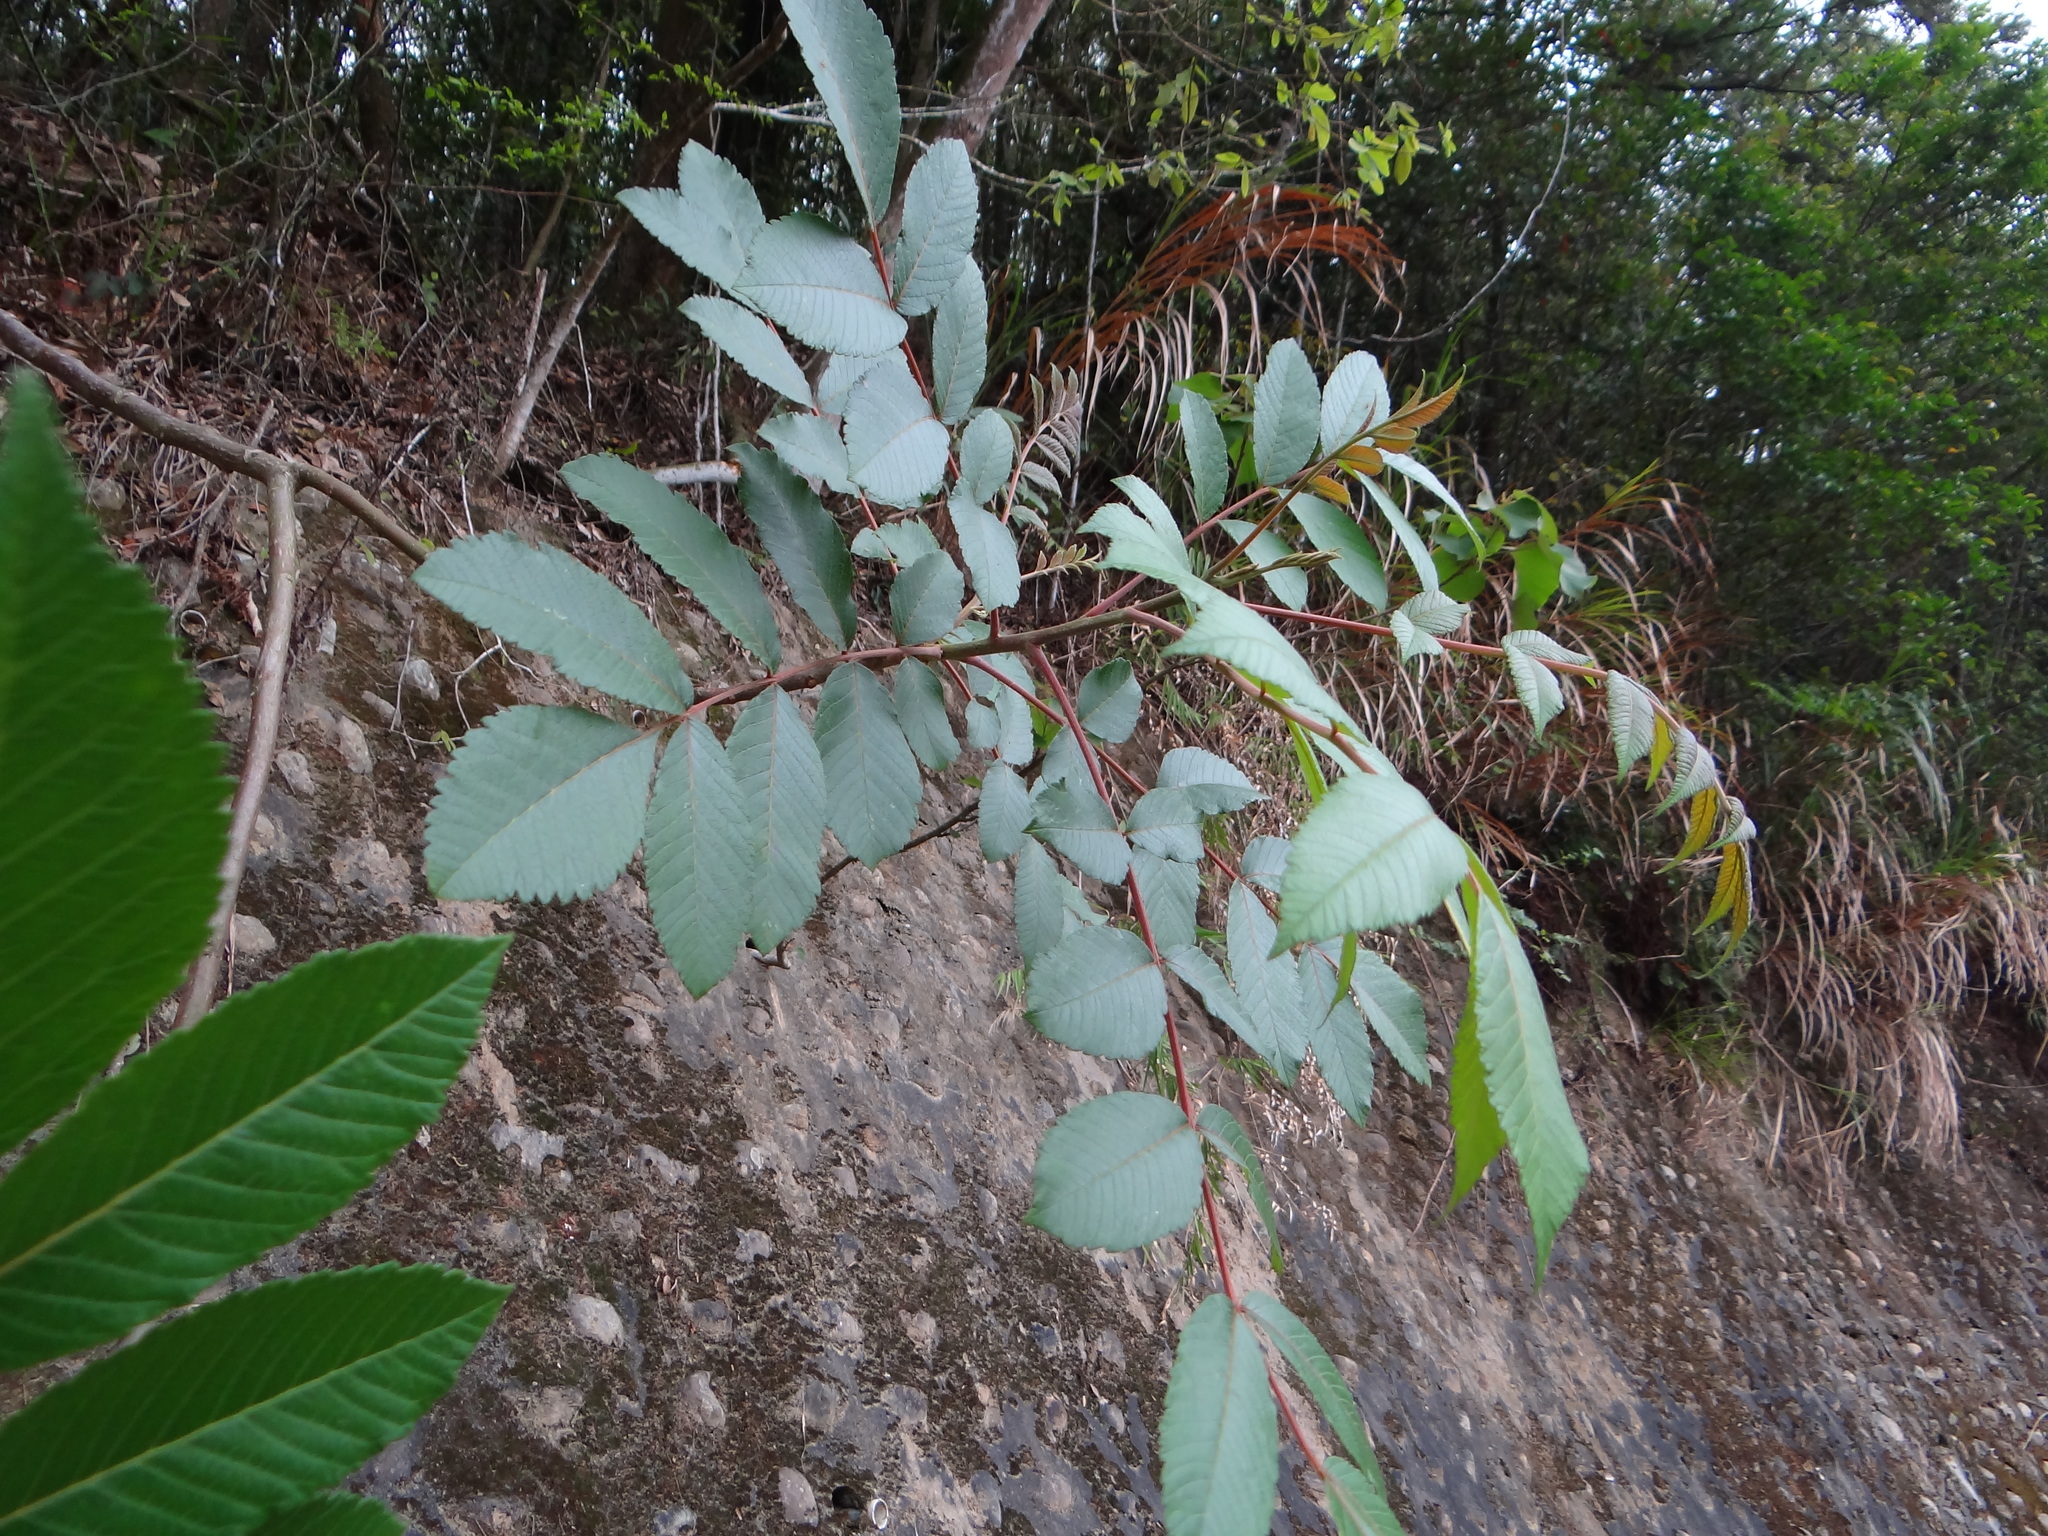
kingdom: Plantae
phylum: Tracheophyta
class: Magnoliopsida
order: Sapindales
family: Anacardiaceae
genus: Rhus
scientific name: Rhus chinensis
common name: Chinese gall
